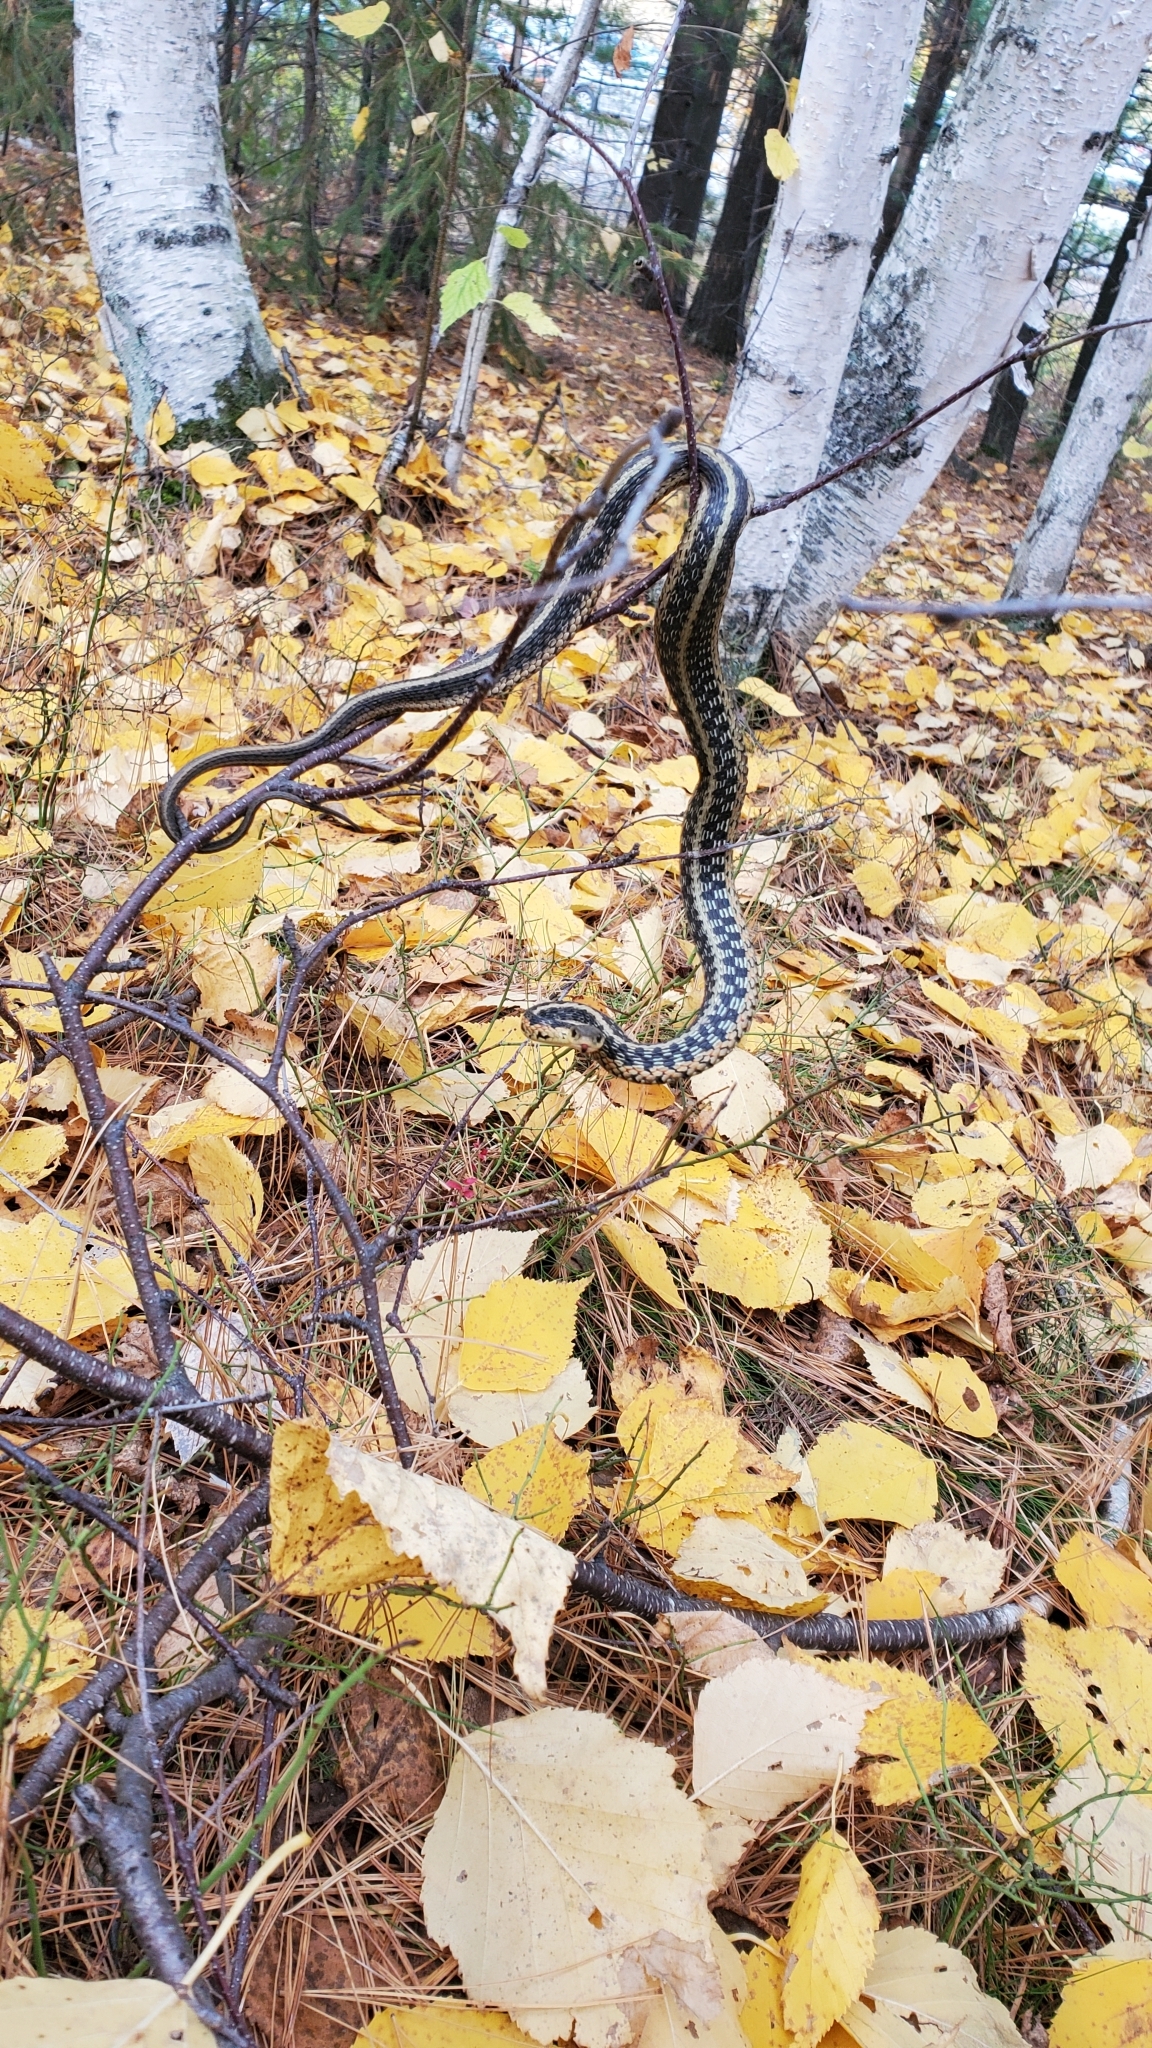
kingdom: Animalia
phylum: Chordata
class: Squamata
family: Colubridae
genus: Thamnophis
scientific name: Thamnophis sirtalis
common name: Common garter snake
